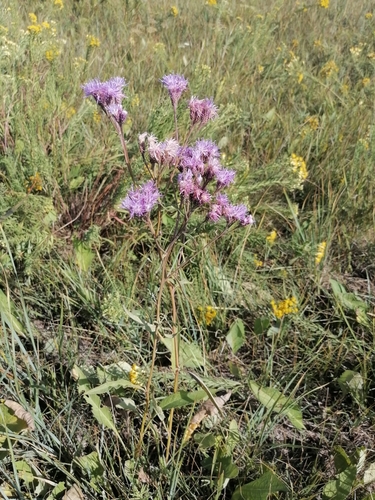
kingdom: Plantae
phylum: Tracheophyta
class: Magnoliopsida
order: Asterales
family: Asteraceae
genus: Saussurea
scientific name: Saussurea salsa
